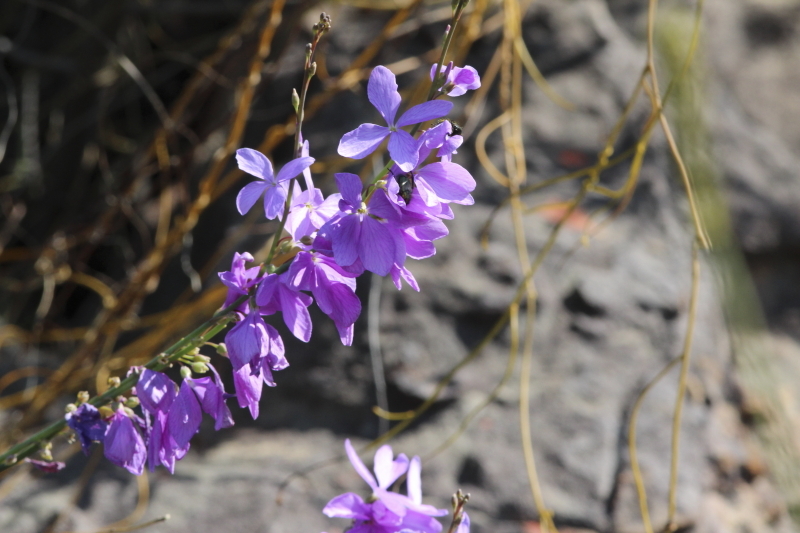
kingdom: Plantae
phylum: Tracheophyta
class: Magnoliopsida
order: Brassicales
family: Brassicaceae
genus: Heliophila
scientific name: Heliophila juncea
